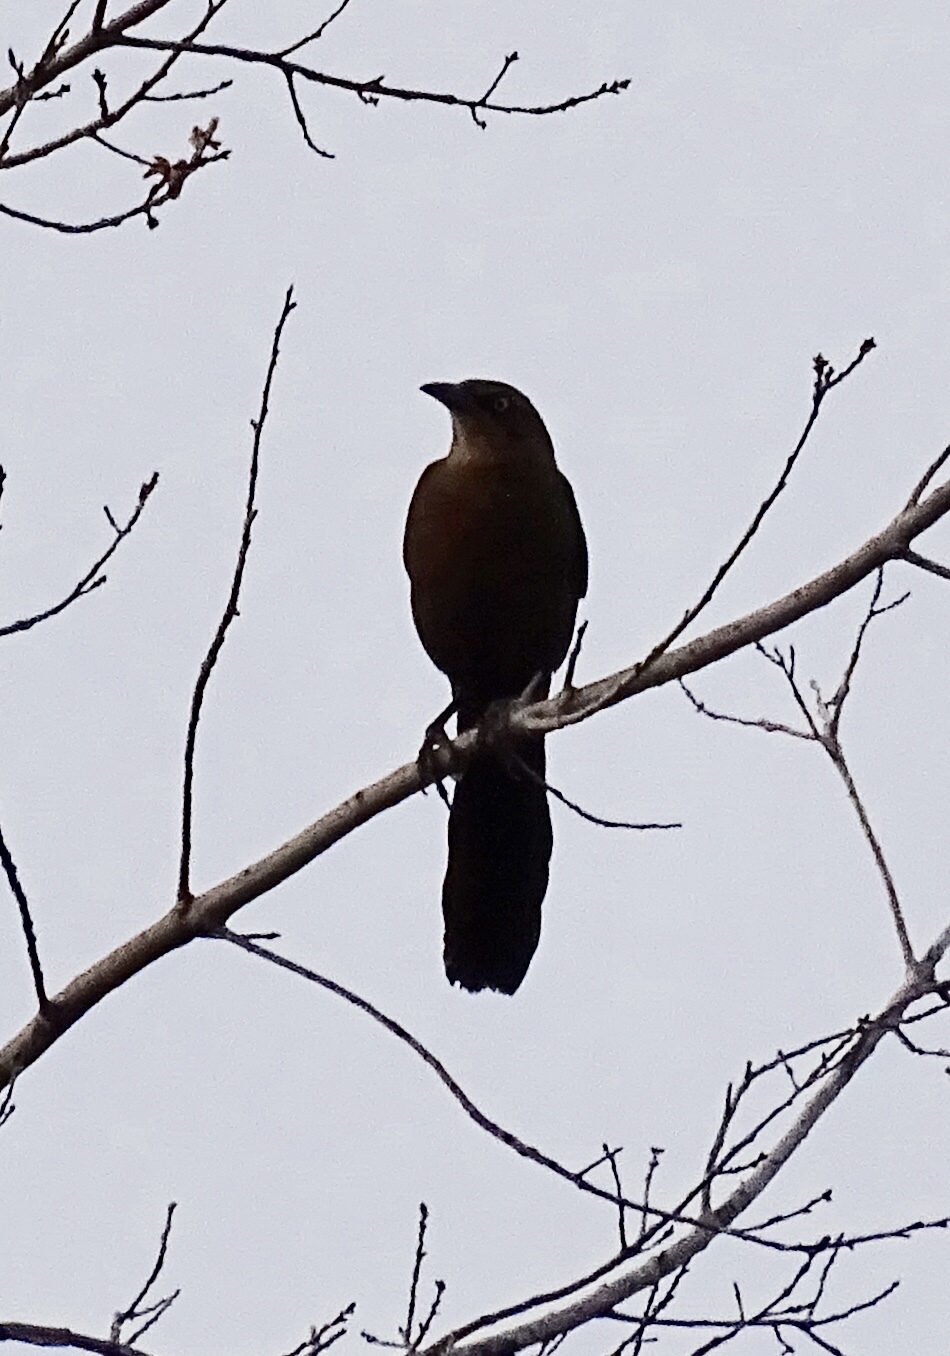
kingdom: Animalia
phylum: Chordata
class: Aves
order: Passeriformes
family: Icteridae
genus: Quiscalus
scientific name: Quiscalus mexicanus
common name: Great-tailed grackle
